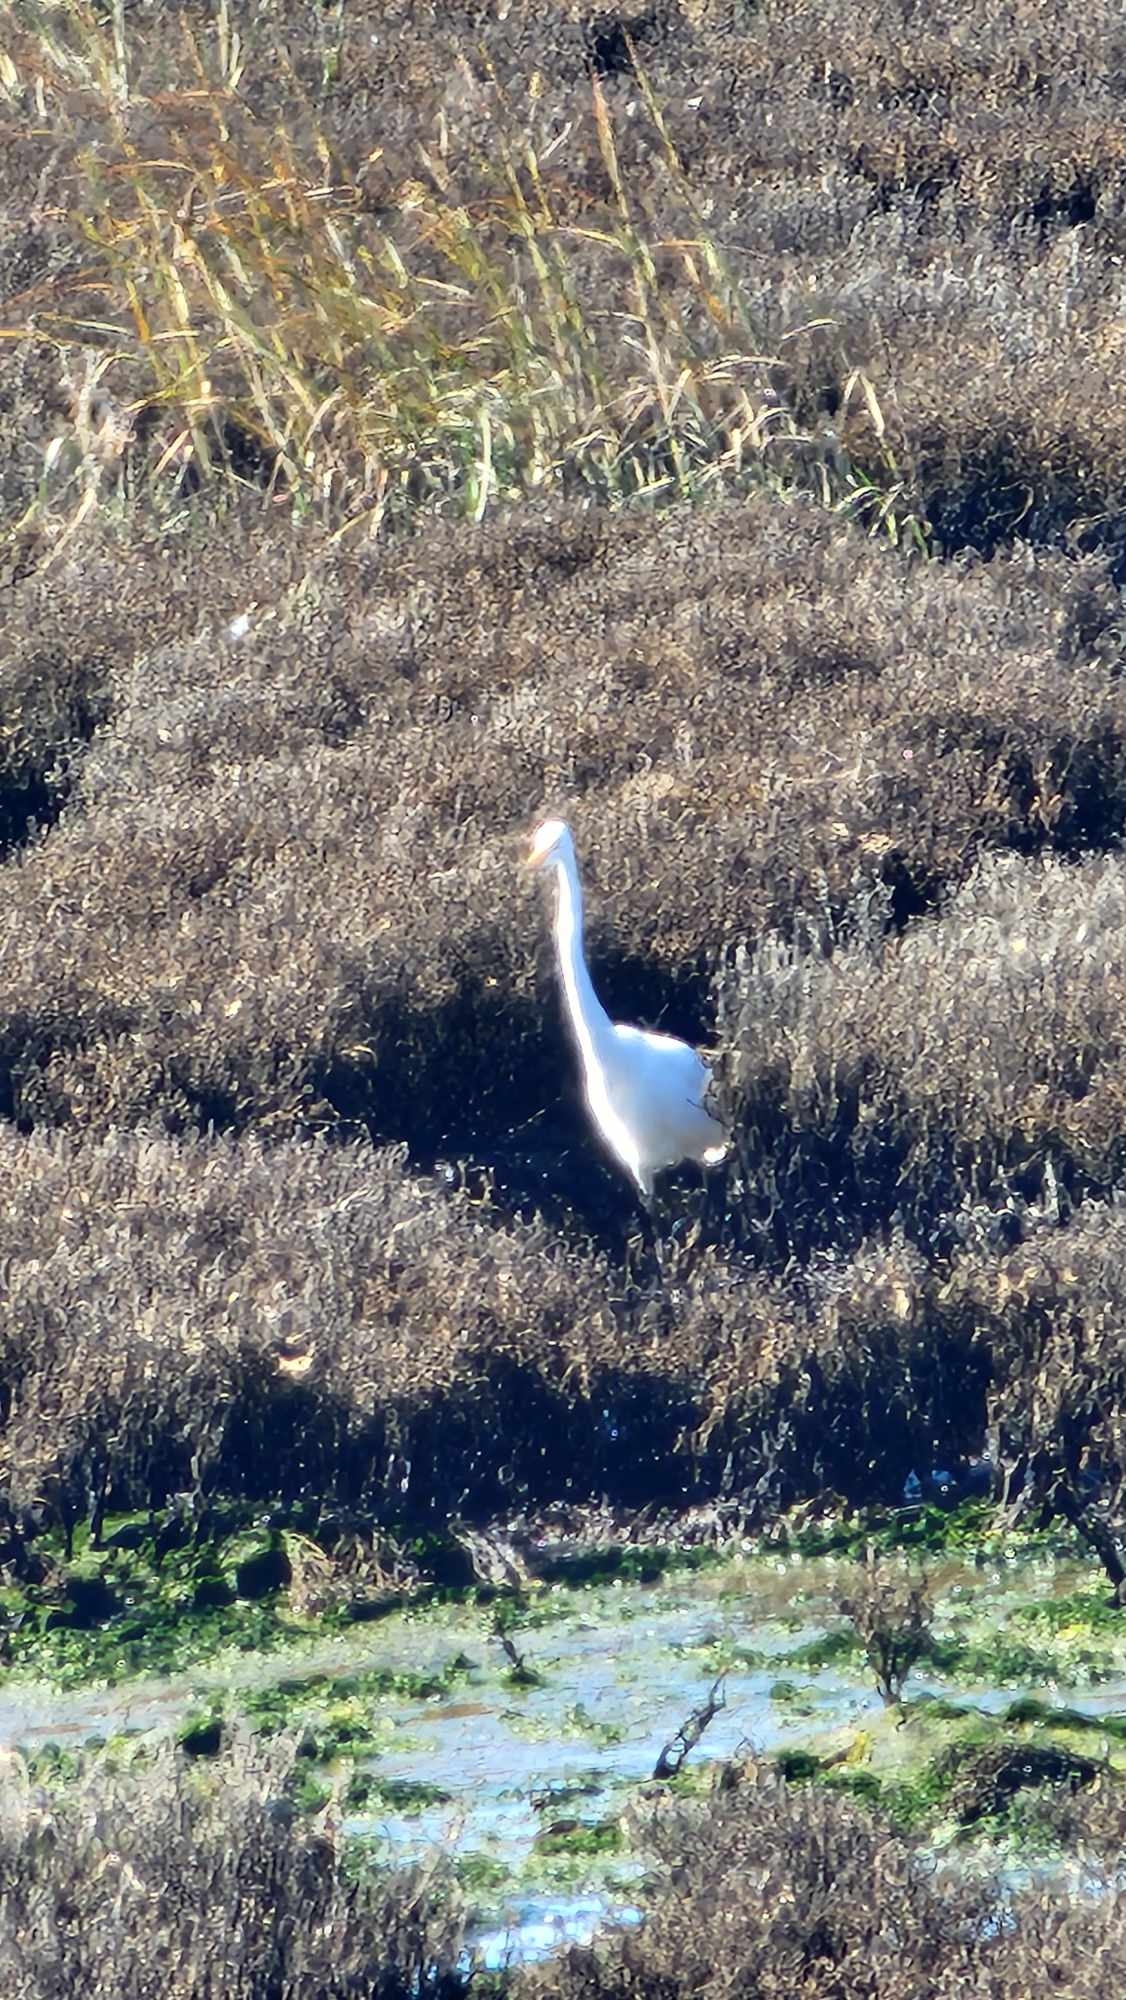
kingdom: Animalia
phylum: Chordata
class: Aves
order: Pelecaniformes
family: Ardeidae
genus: Ardea
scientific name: Ardea alba
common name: Great egret
